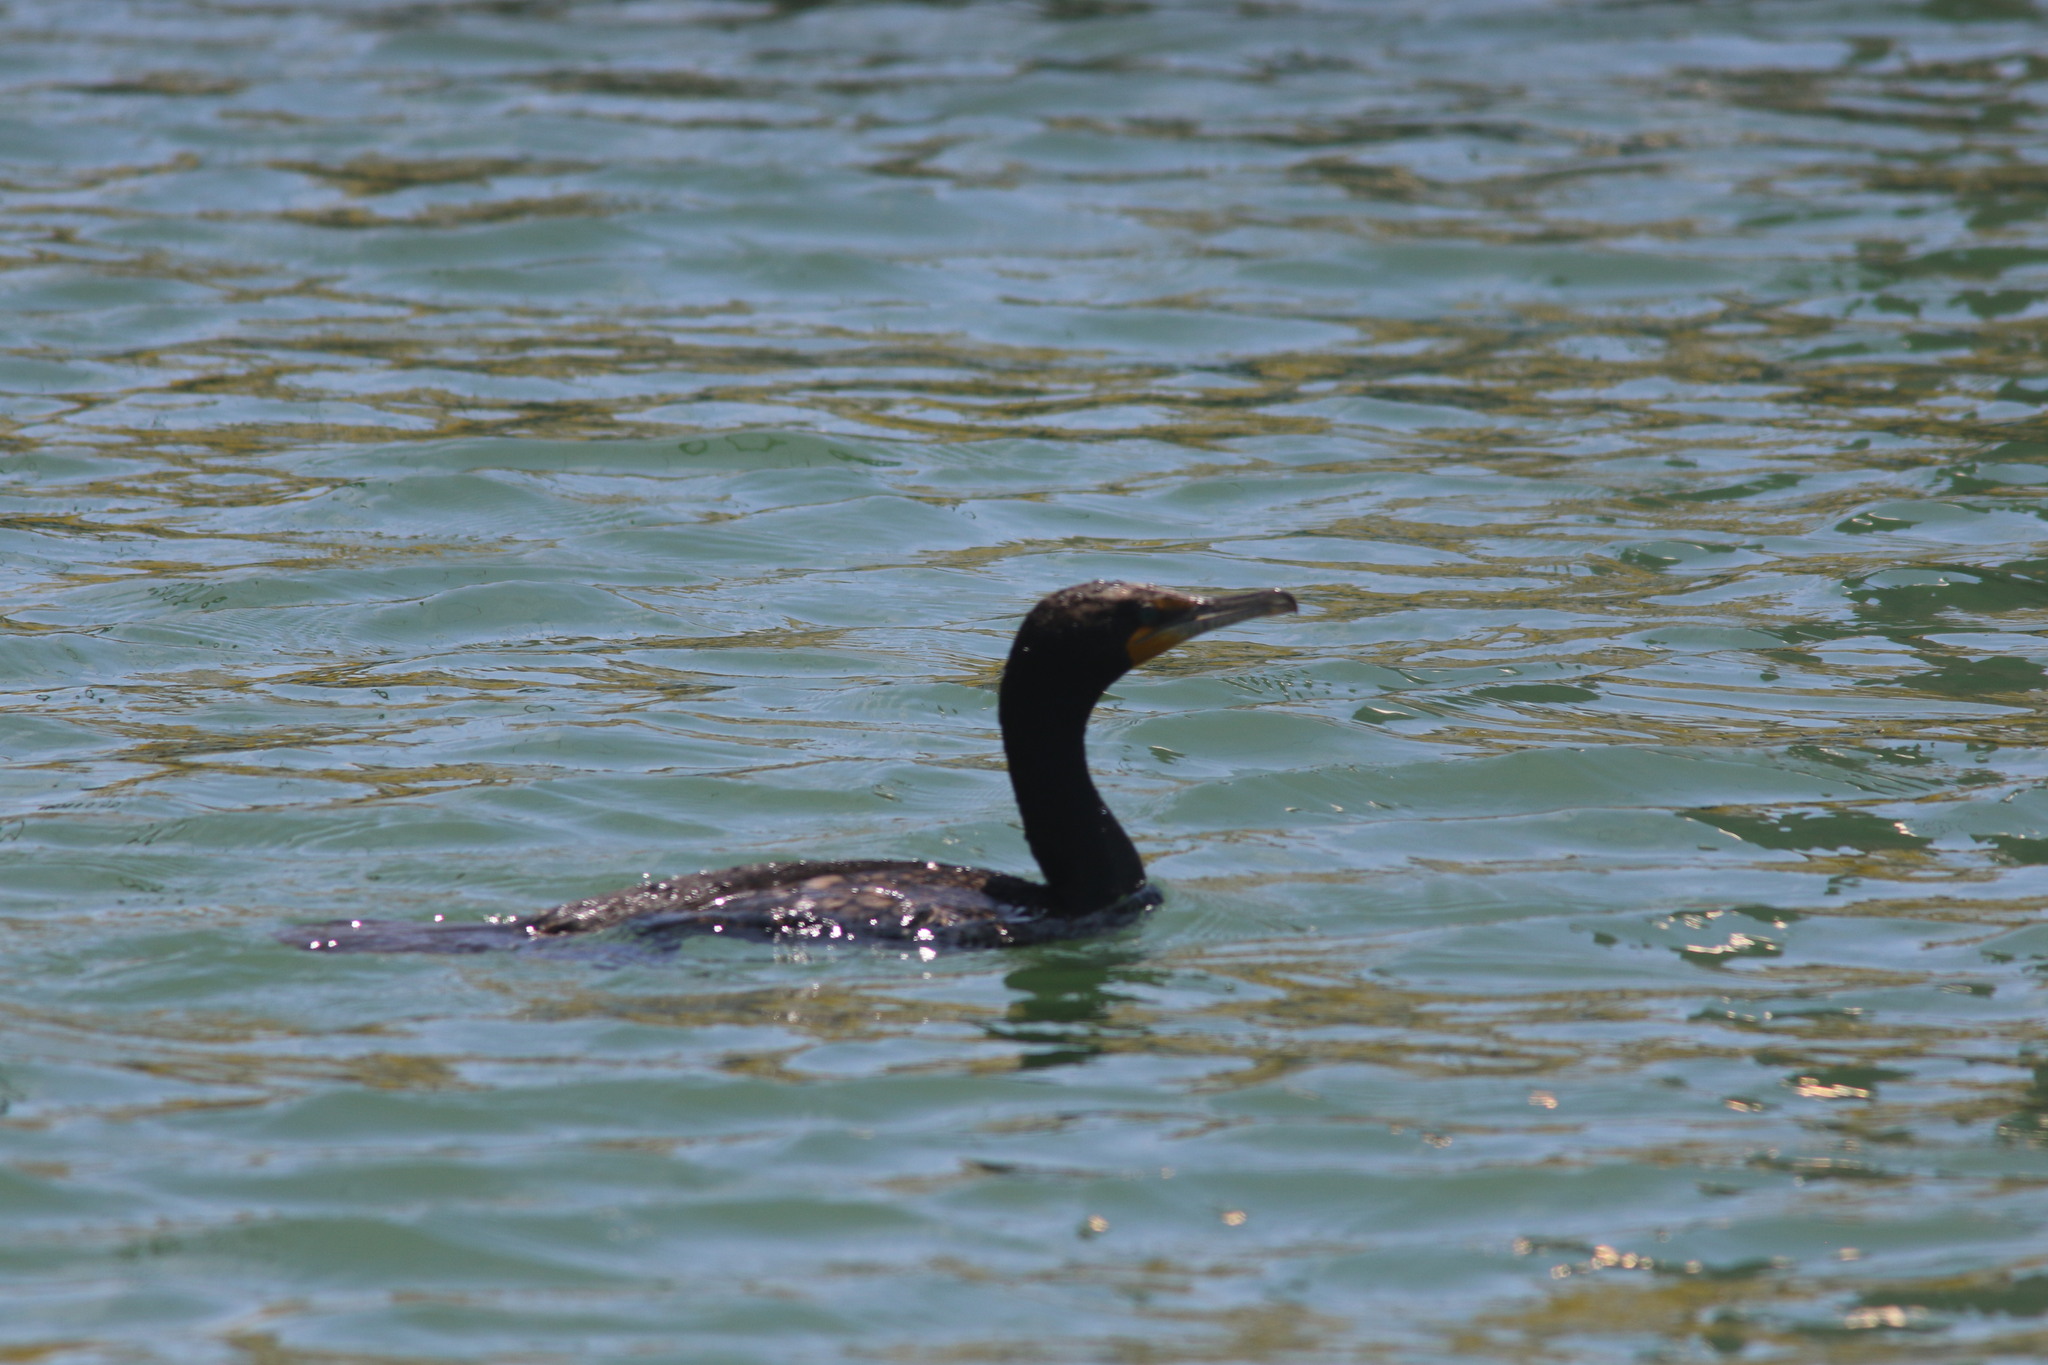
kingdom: Animalia
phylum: Chordata
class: Aves
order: Suliformes
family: Phalacrocoracidae
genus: Phalacrocorax
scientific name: Phalacrocorax auritus
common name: Double-crested cormorant
